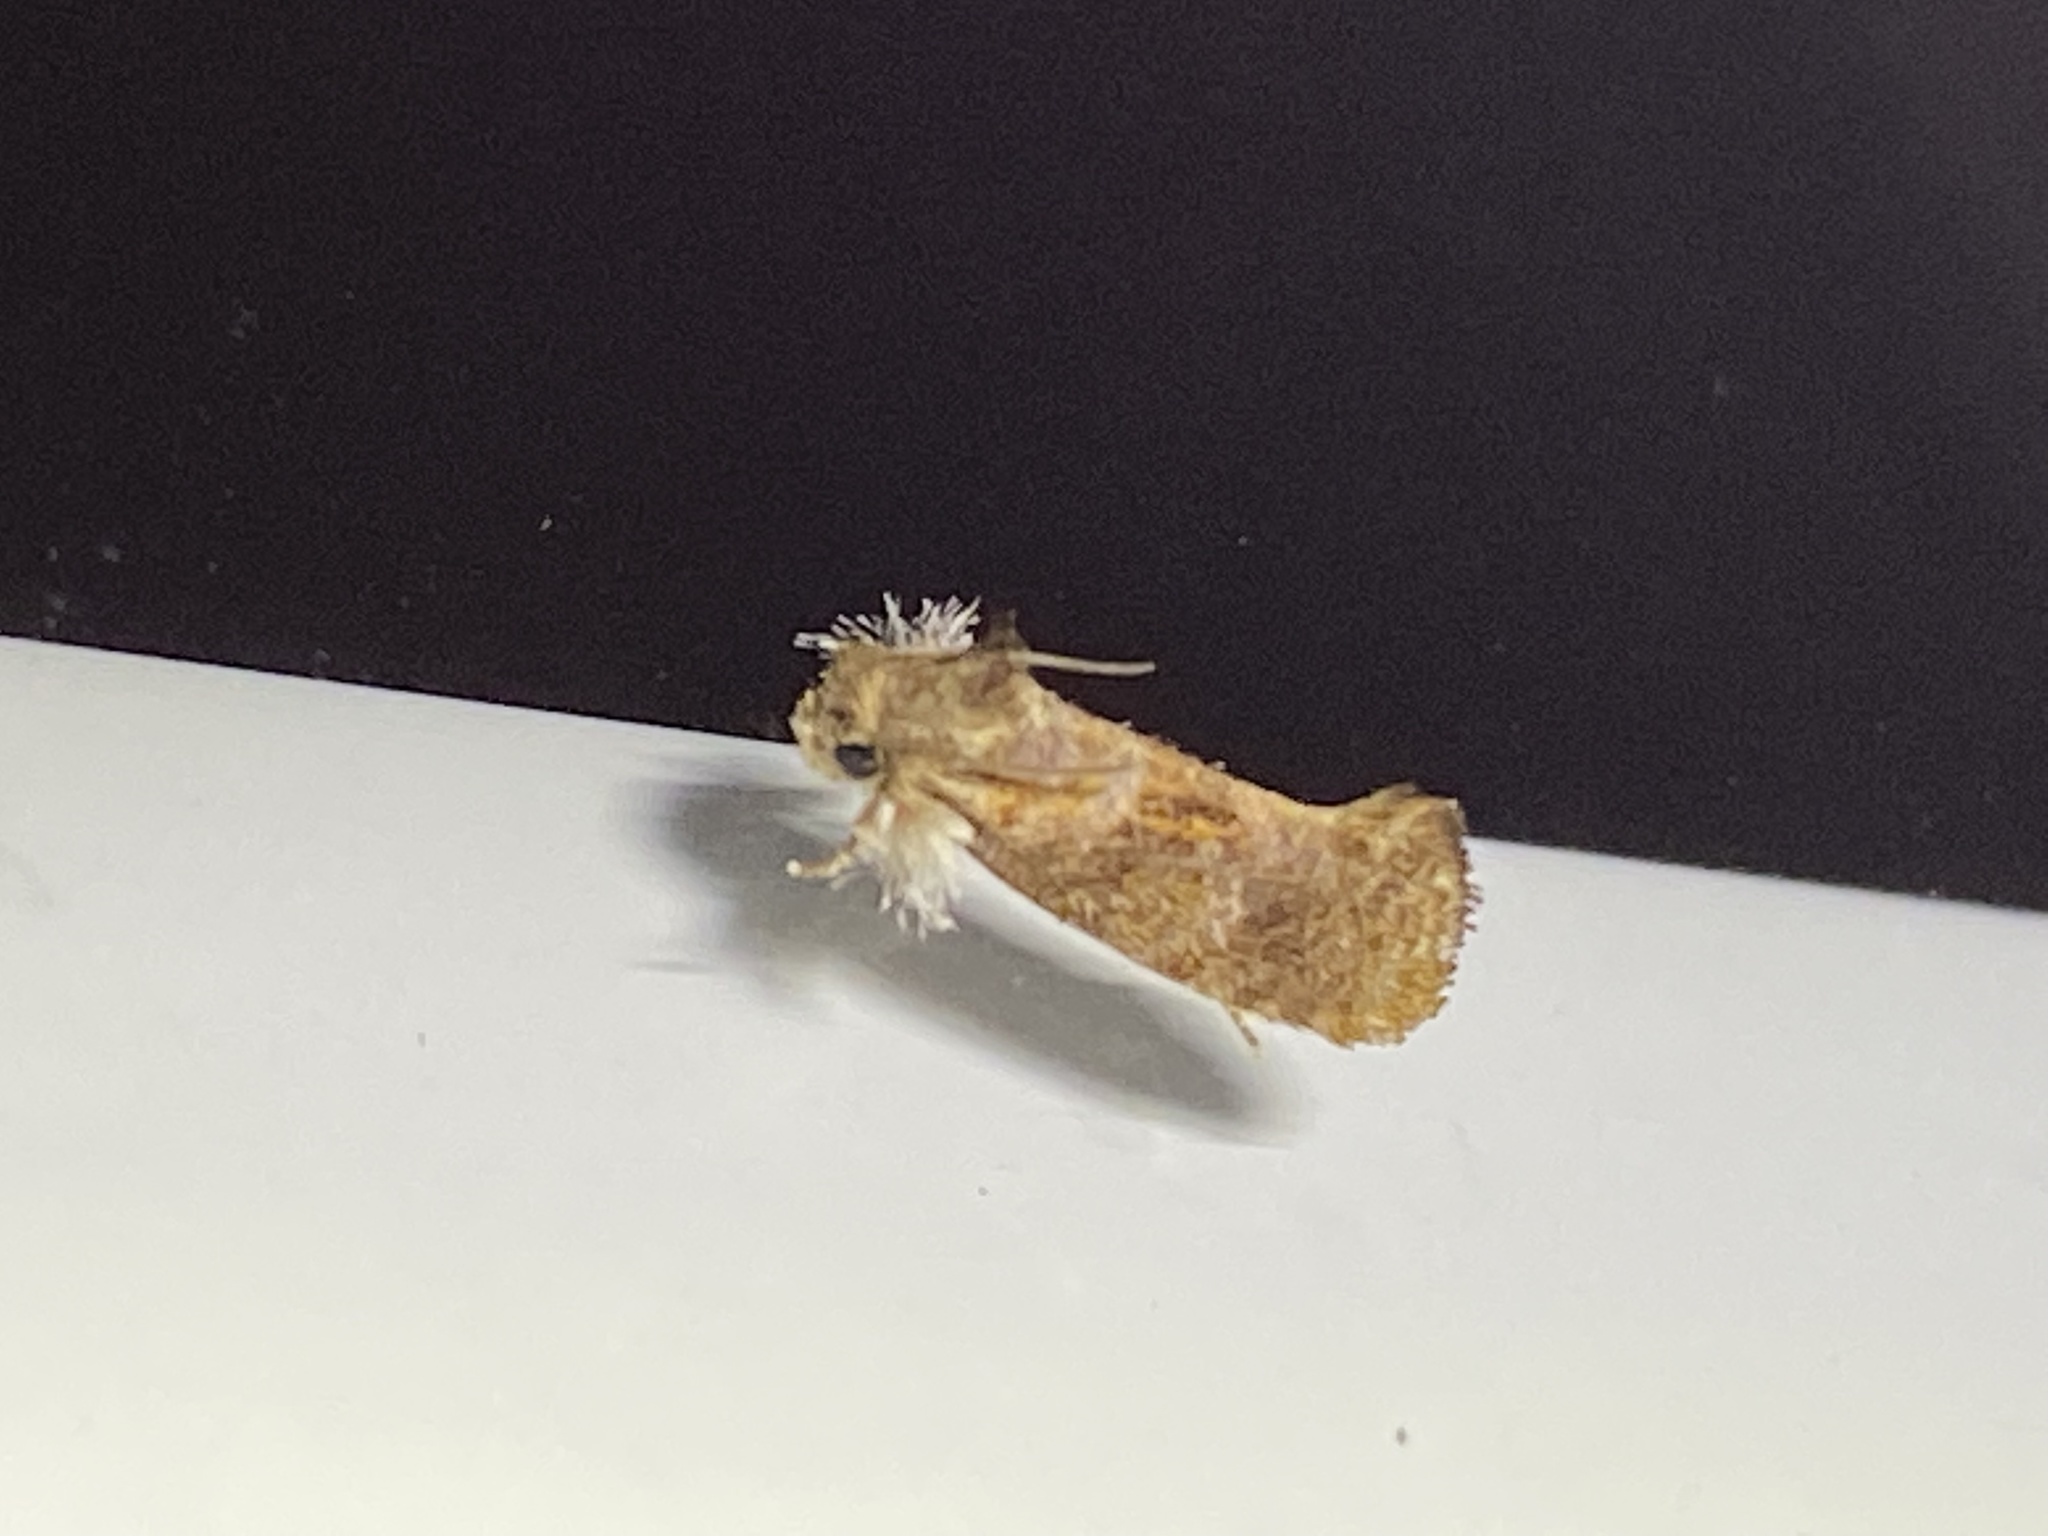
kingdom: Animalia
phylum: Arthropoda
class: Insecta
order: Lepidoptera
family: Tineidae
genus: Acrolophus
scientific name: Acrolophus panamae
